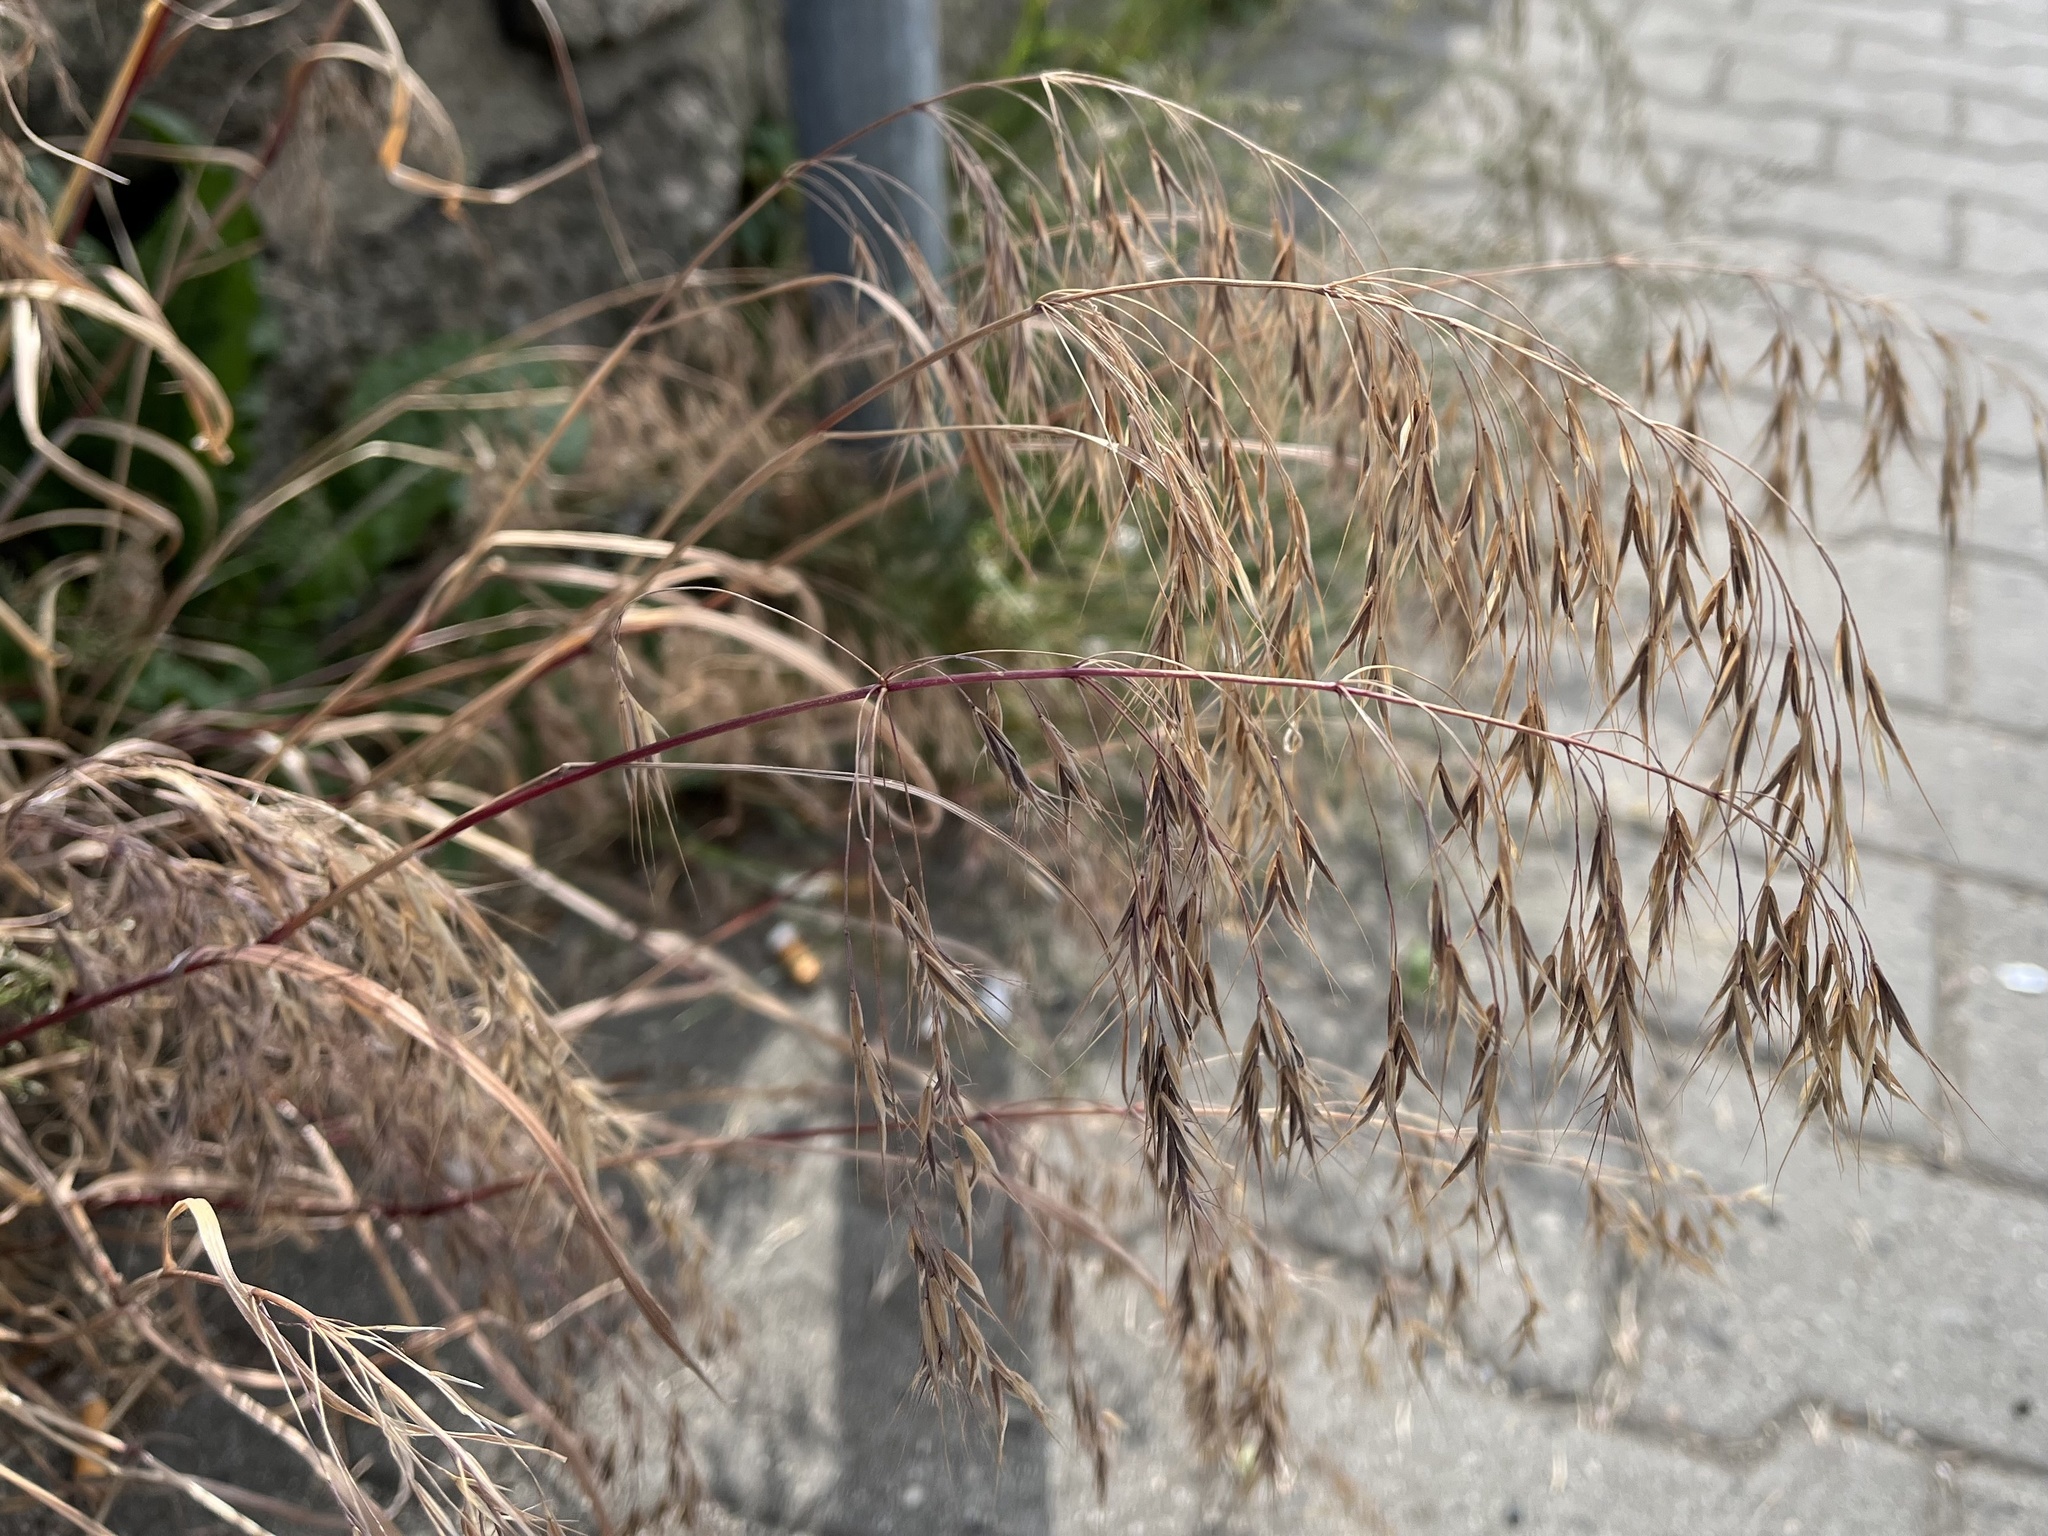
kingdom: Plantae
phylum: Tracheophyta
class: Liliopsida
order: Poales
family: Poaceae
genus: Bromus
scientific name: Bromus tectorum
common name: Cheatgrass
